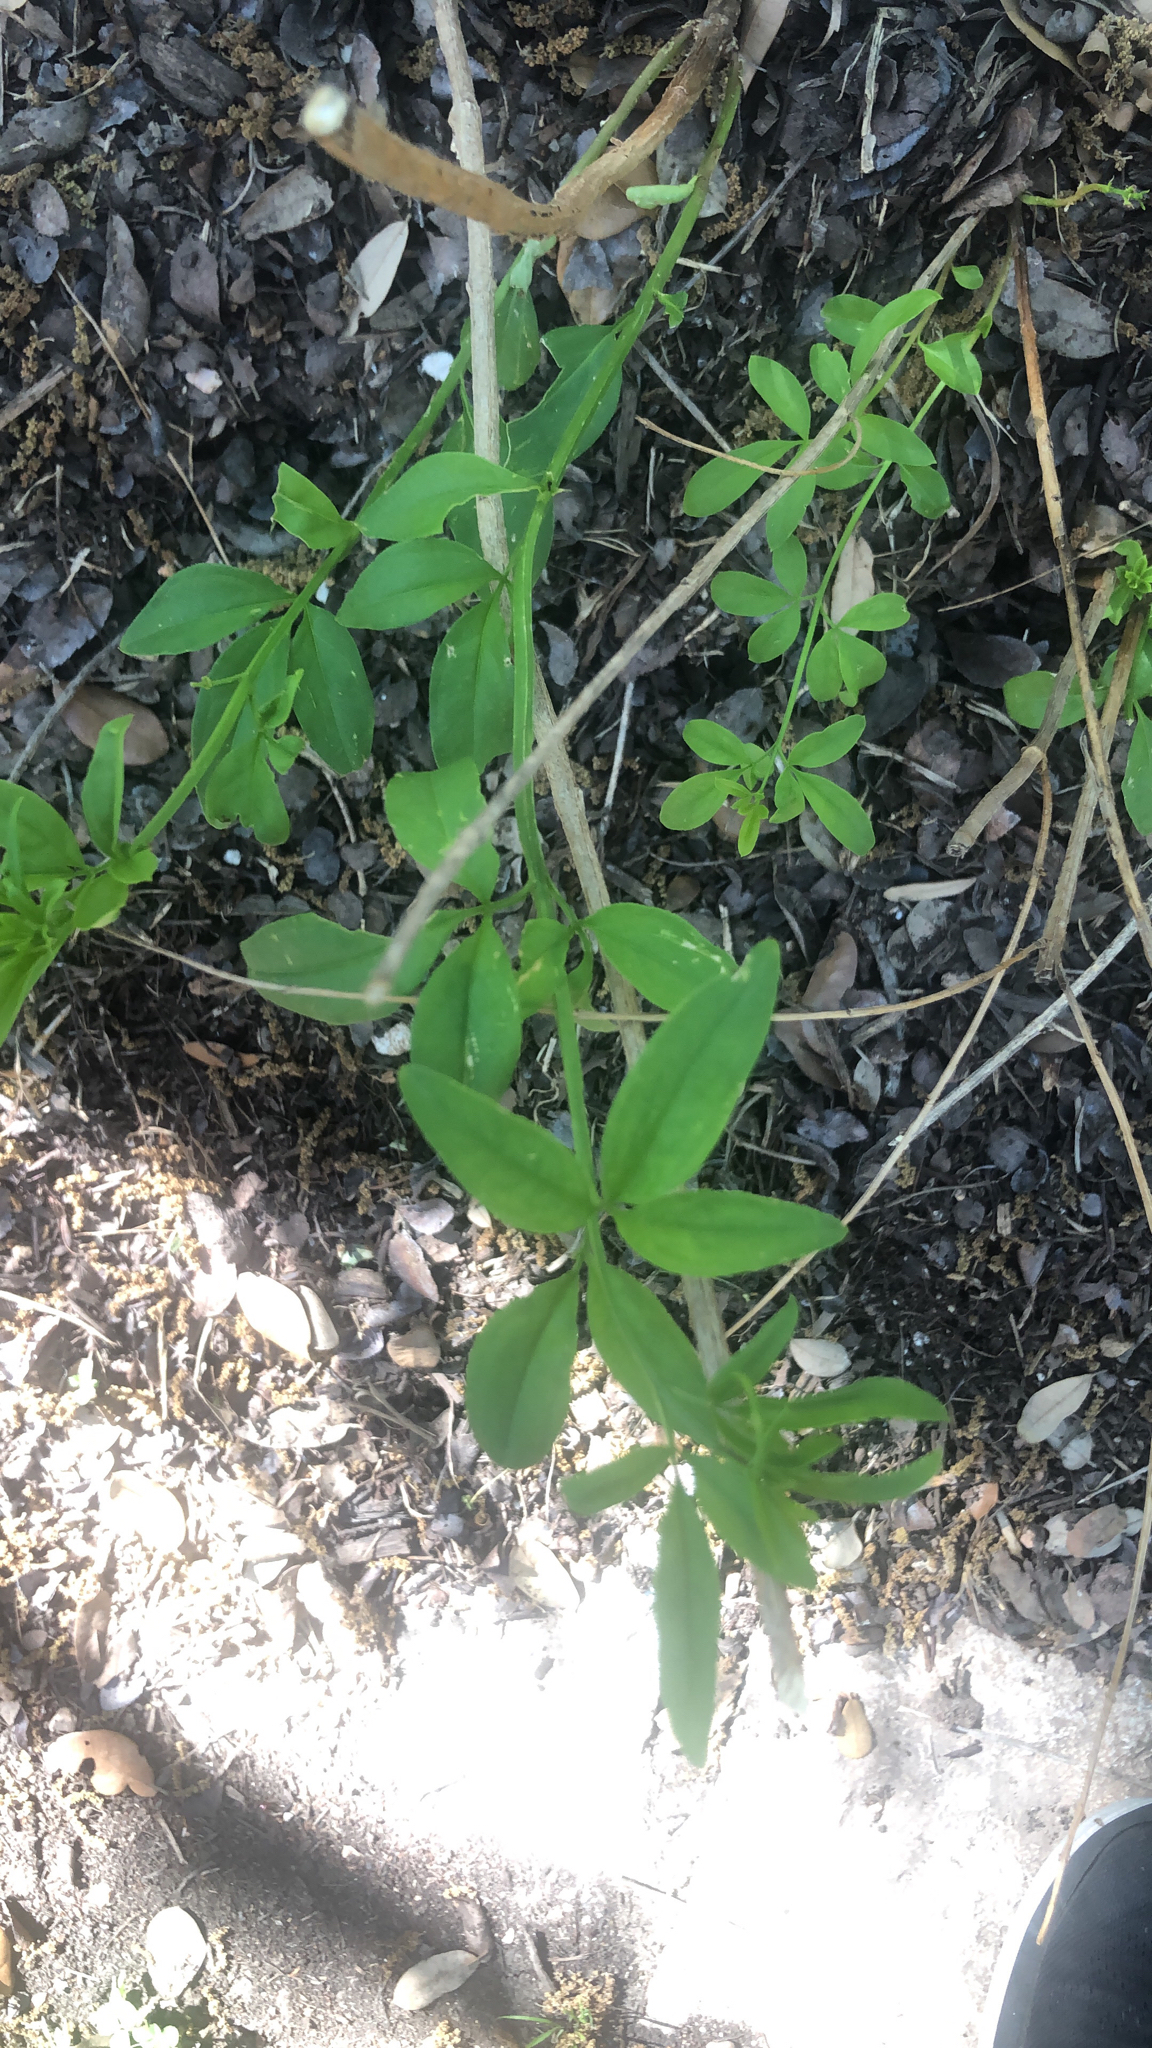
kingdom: Plantae
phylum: Tracheophyta
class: Magnoliopsida
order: Lamiales
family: Oleaceae
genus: Jasminum
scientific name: Jasminum mesnyi
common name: Japanese jasmine
